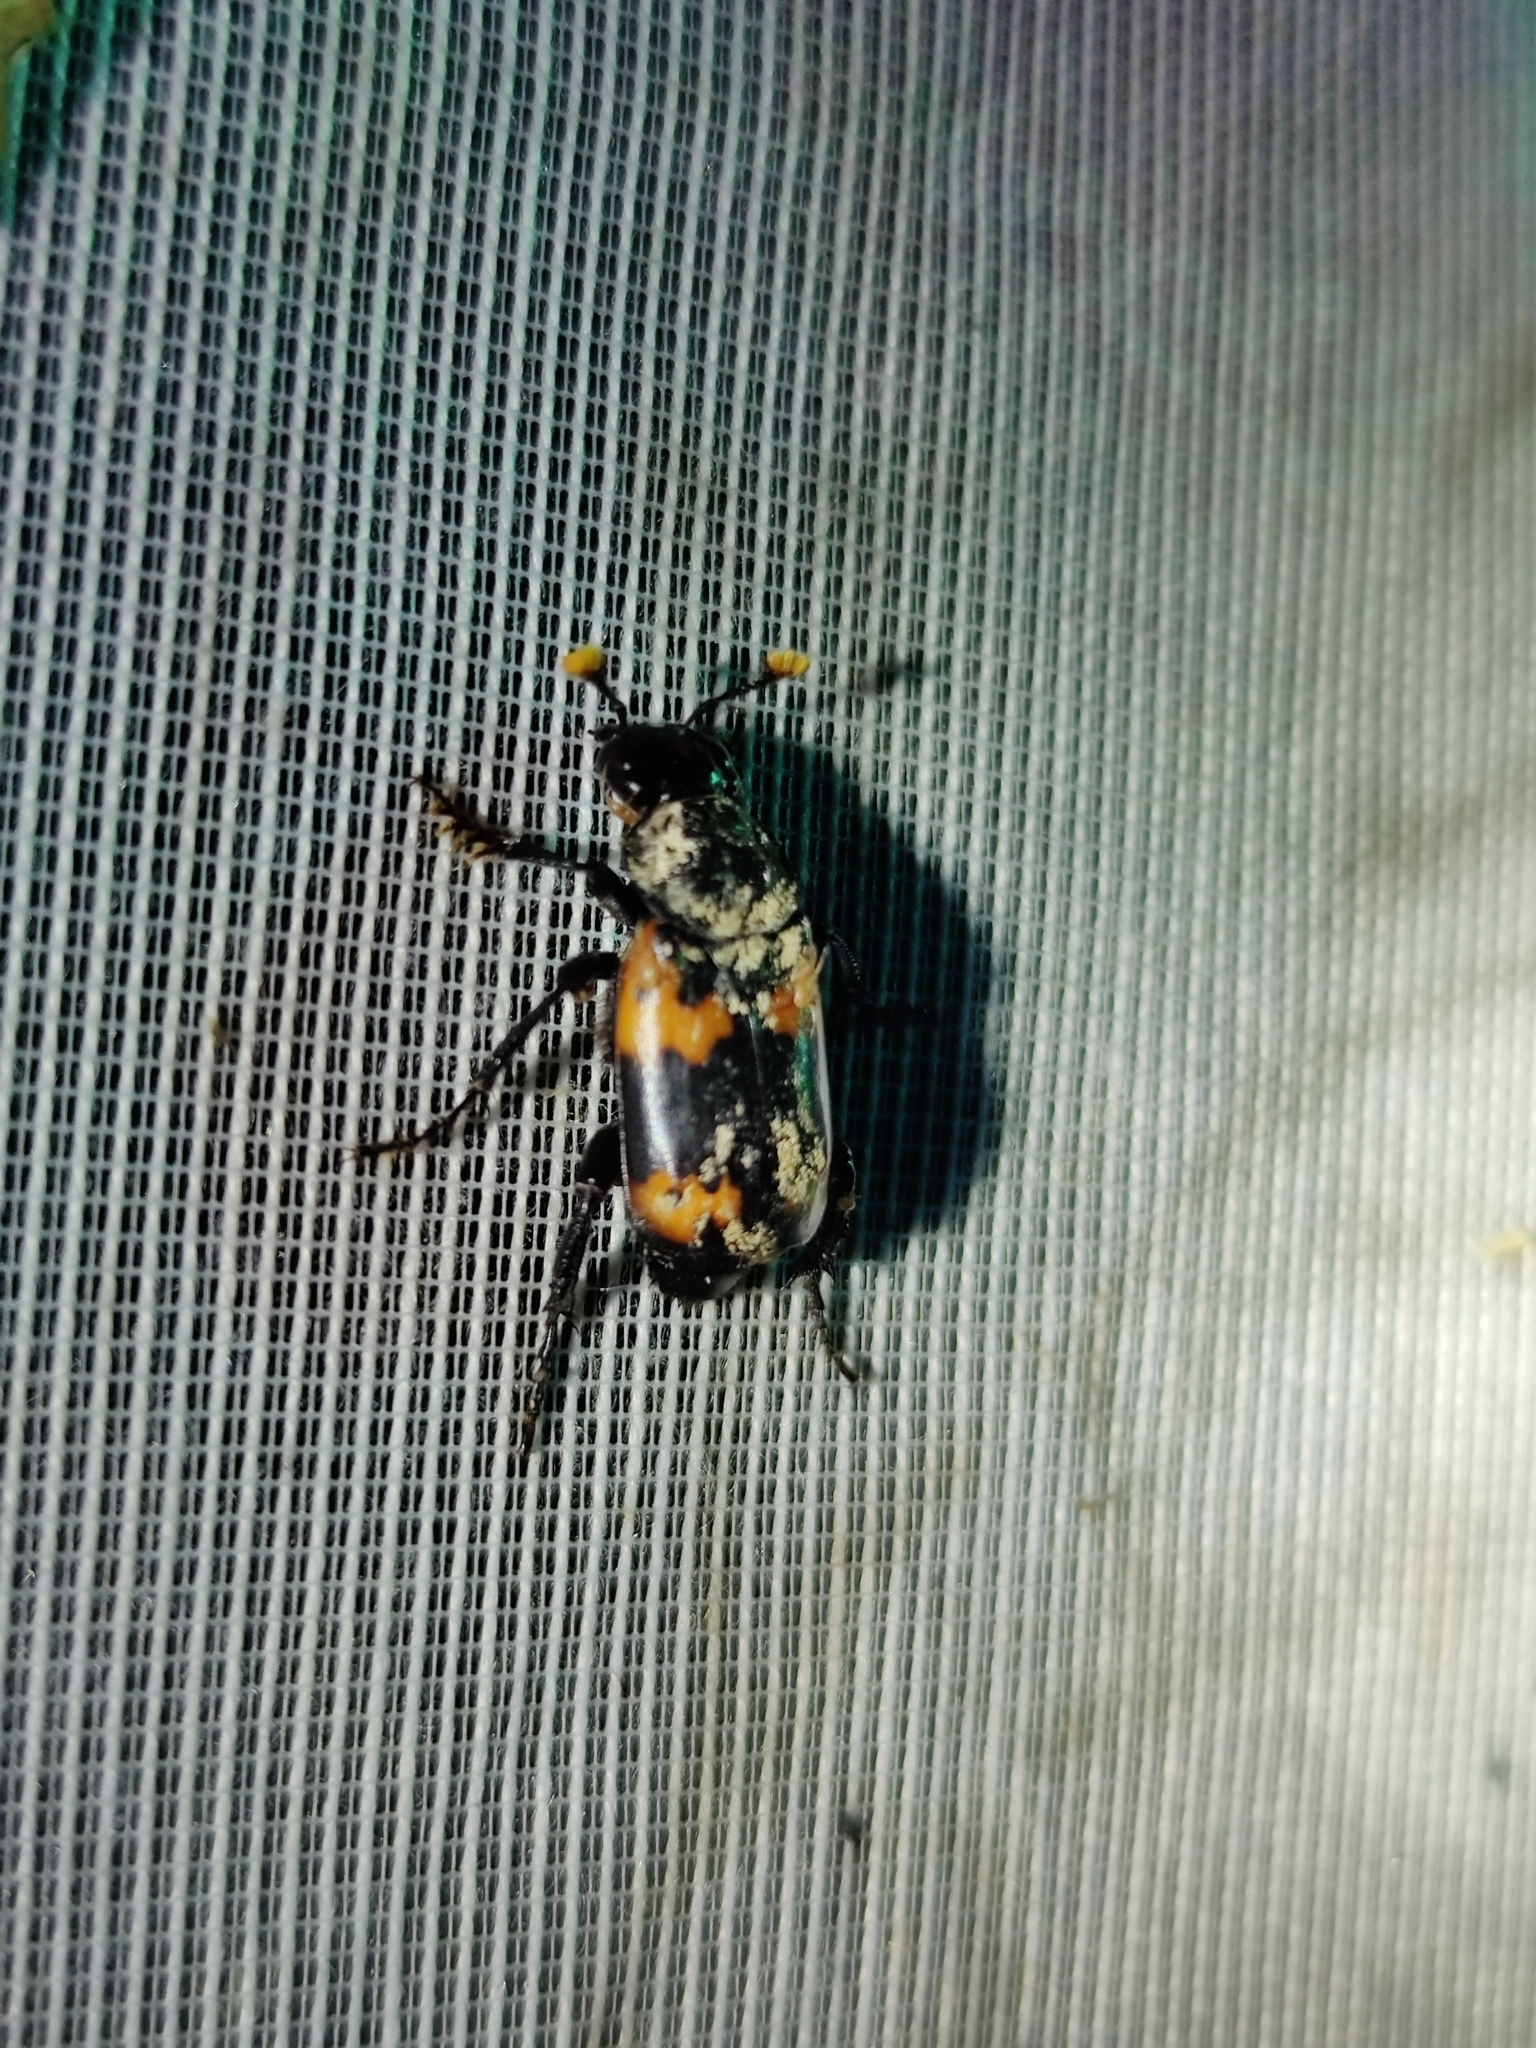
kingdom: Animalia
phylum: Arthropoda
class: Insecta
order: Coleoptera
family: Staphylinidae
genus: Nicrophorus
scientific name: Nicrophorus nepalensis
